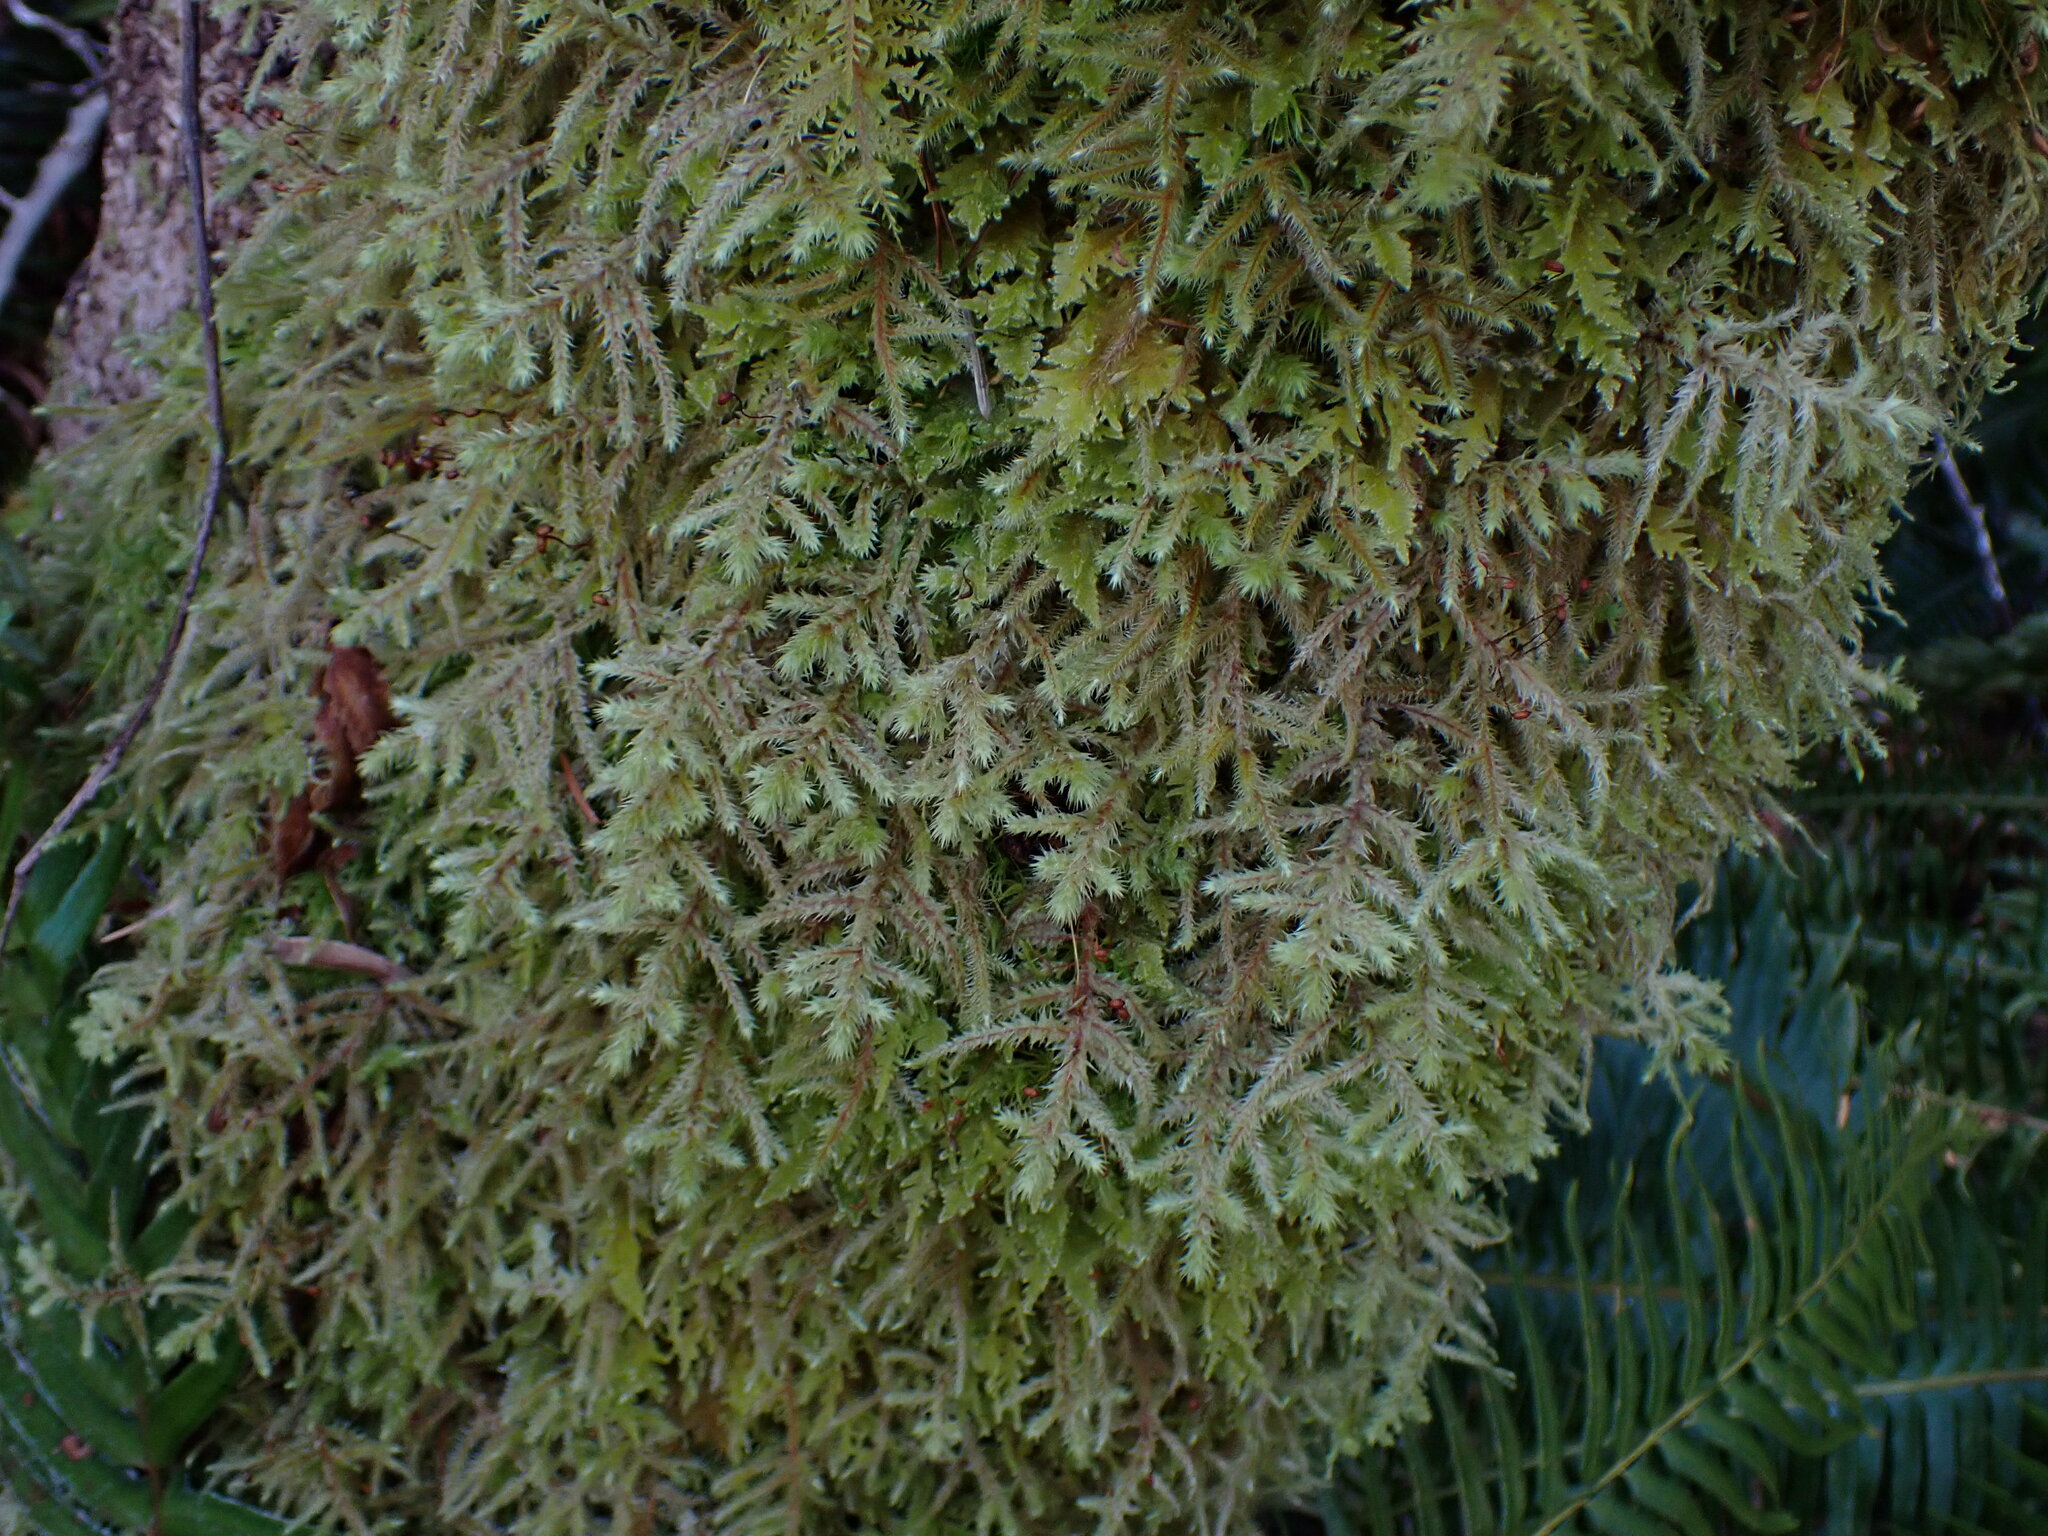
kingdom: Plantae
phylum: Bryophyta
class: Bryopsida
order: Hypnales
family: Hylocomiaceae
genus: Hylocomiadelphus
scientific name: Hylocomiadelphus triquetrus
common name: Rough goose neck moss
